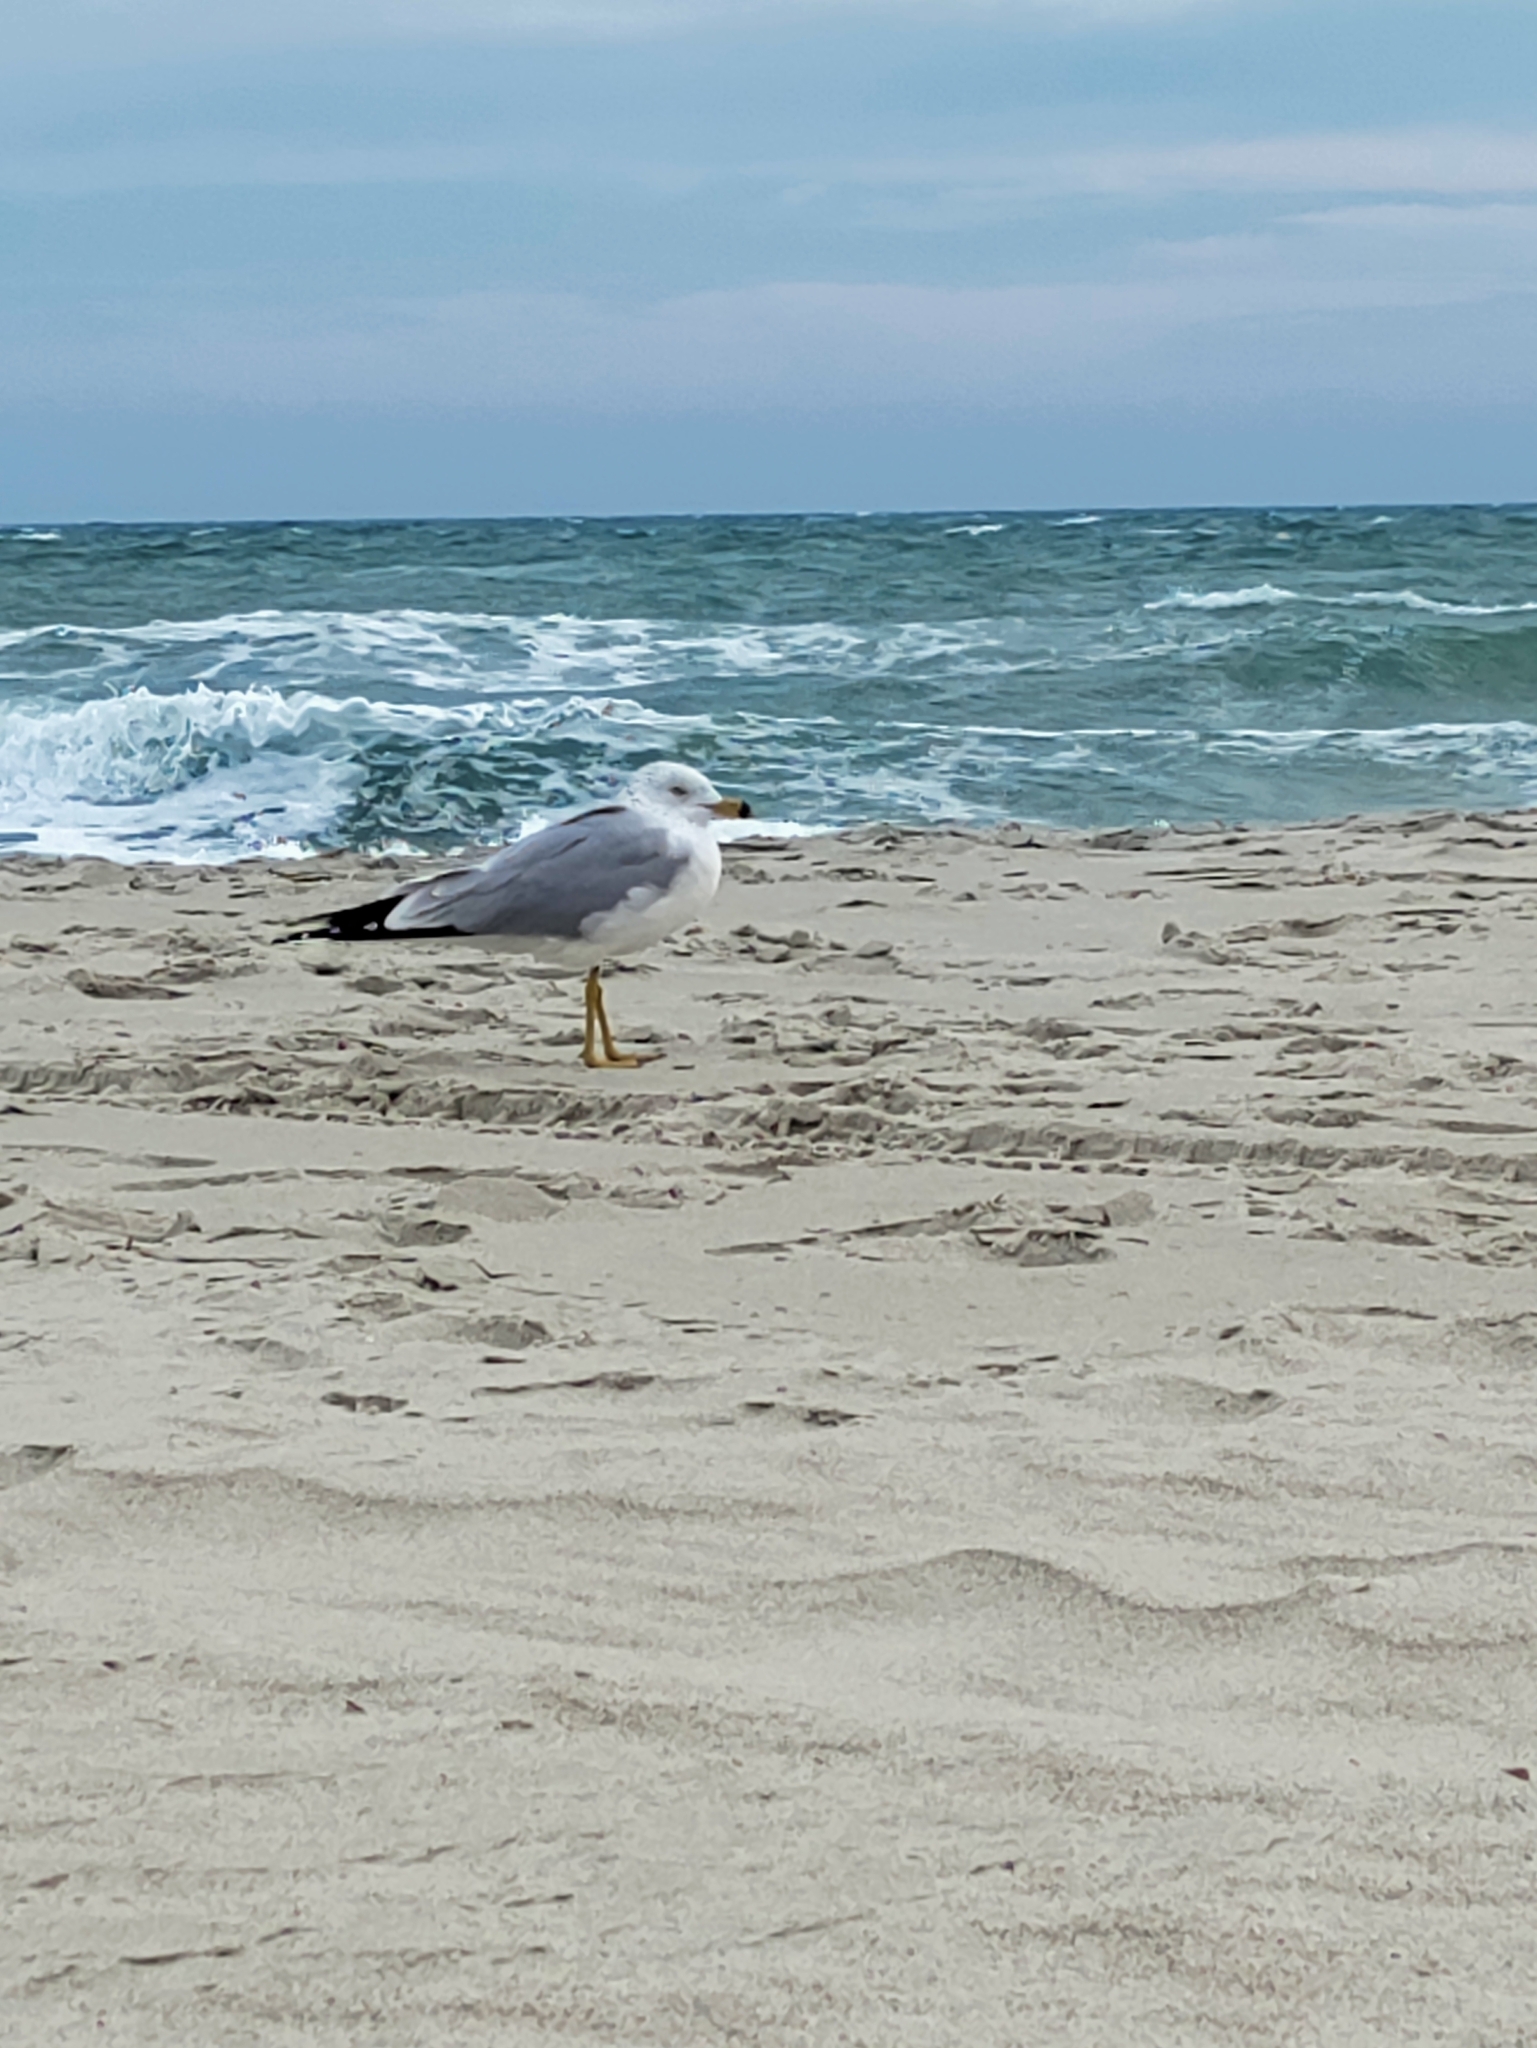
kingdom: Animalia
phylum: Chordata
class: Aves
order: Charadriiformes
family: Laridae
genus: Larus
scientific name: Larus delawarensis
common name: Ring-billed gull
